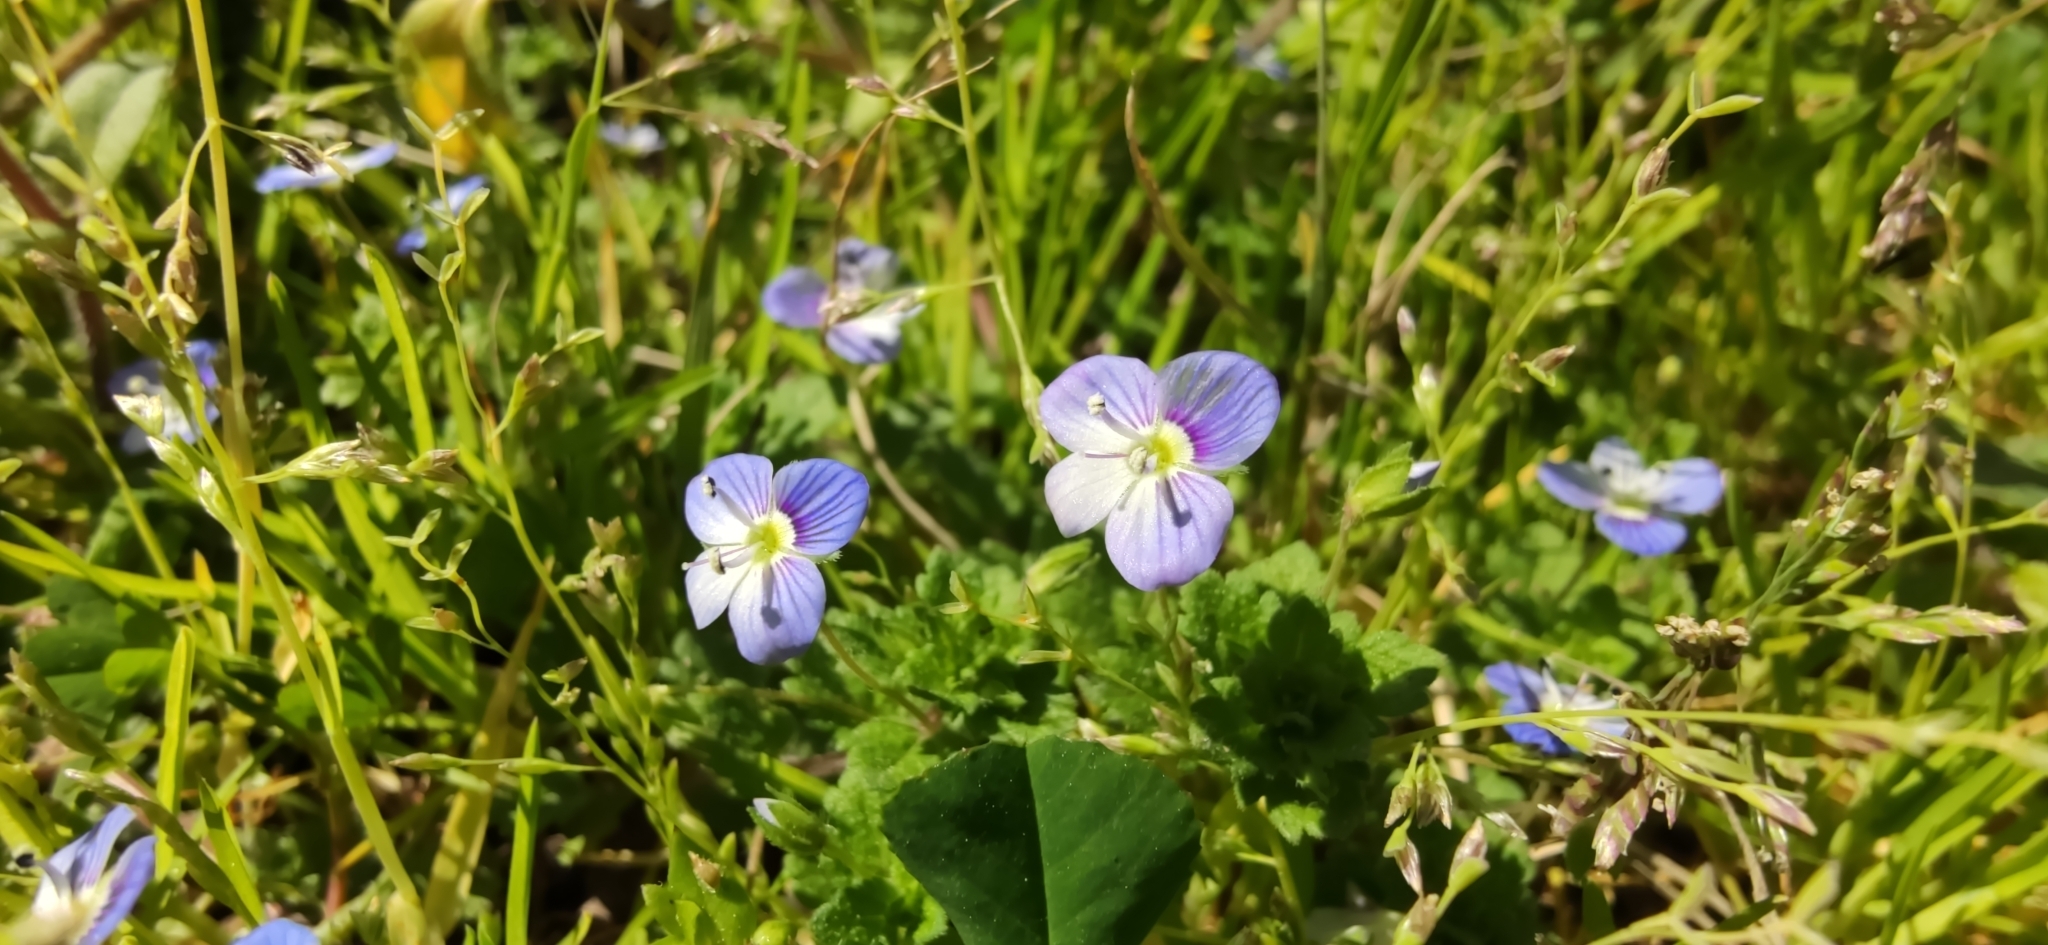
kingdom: Plantae
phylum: Tracheophyta
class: Magnoliopsida
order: Lamiales
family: Plantaginaceae
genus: Veronica
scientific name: Veronica persica
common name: Common field-speedwell
